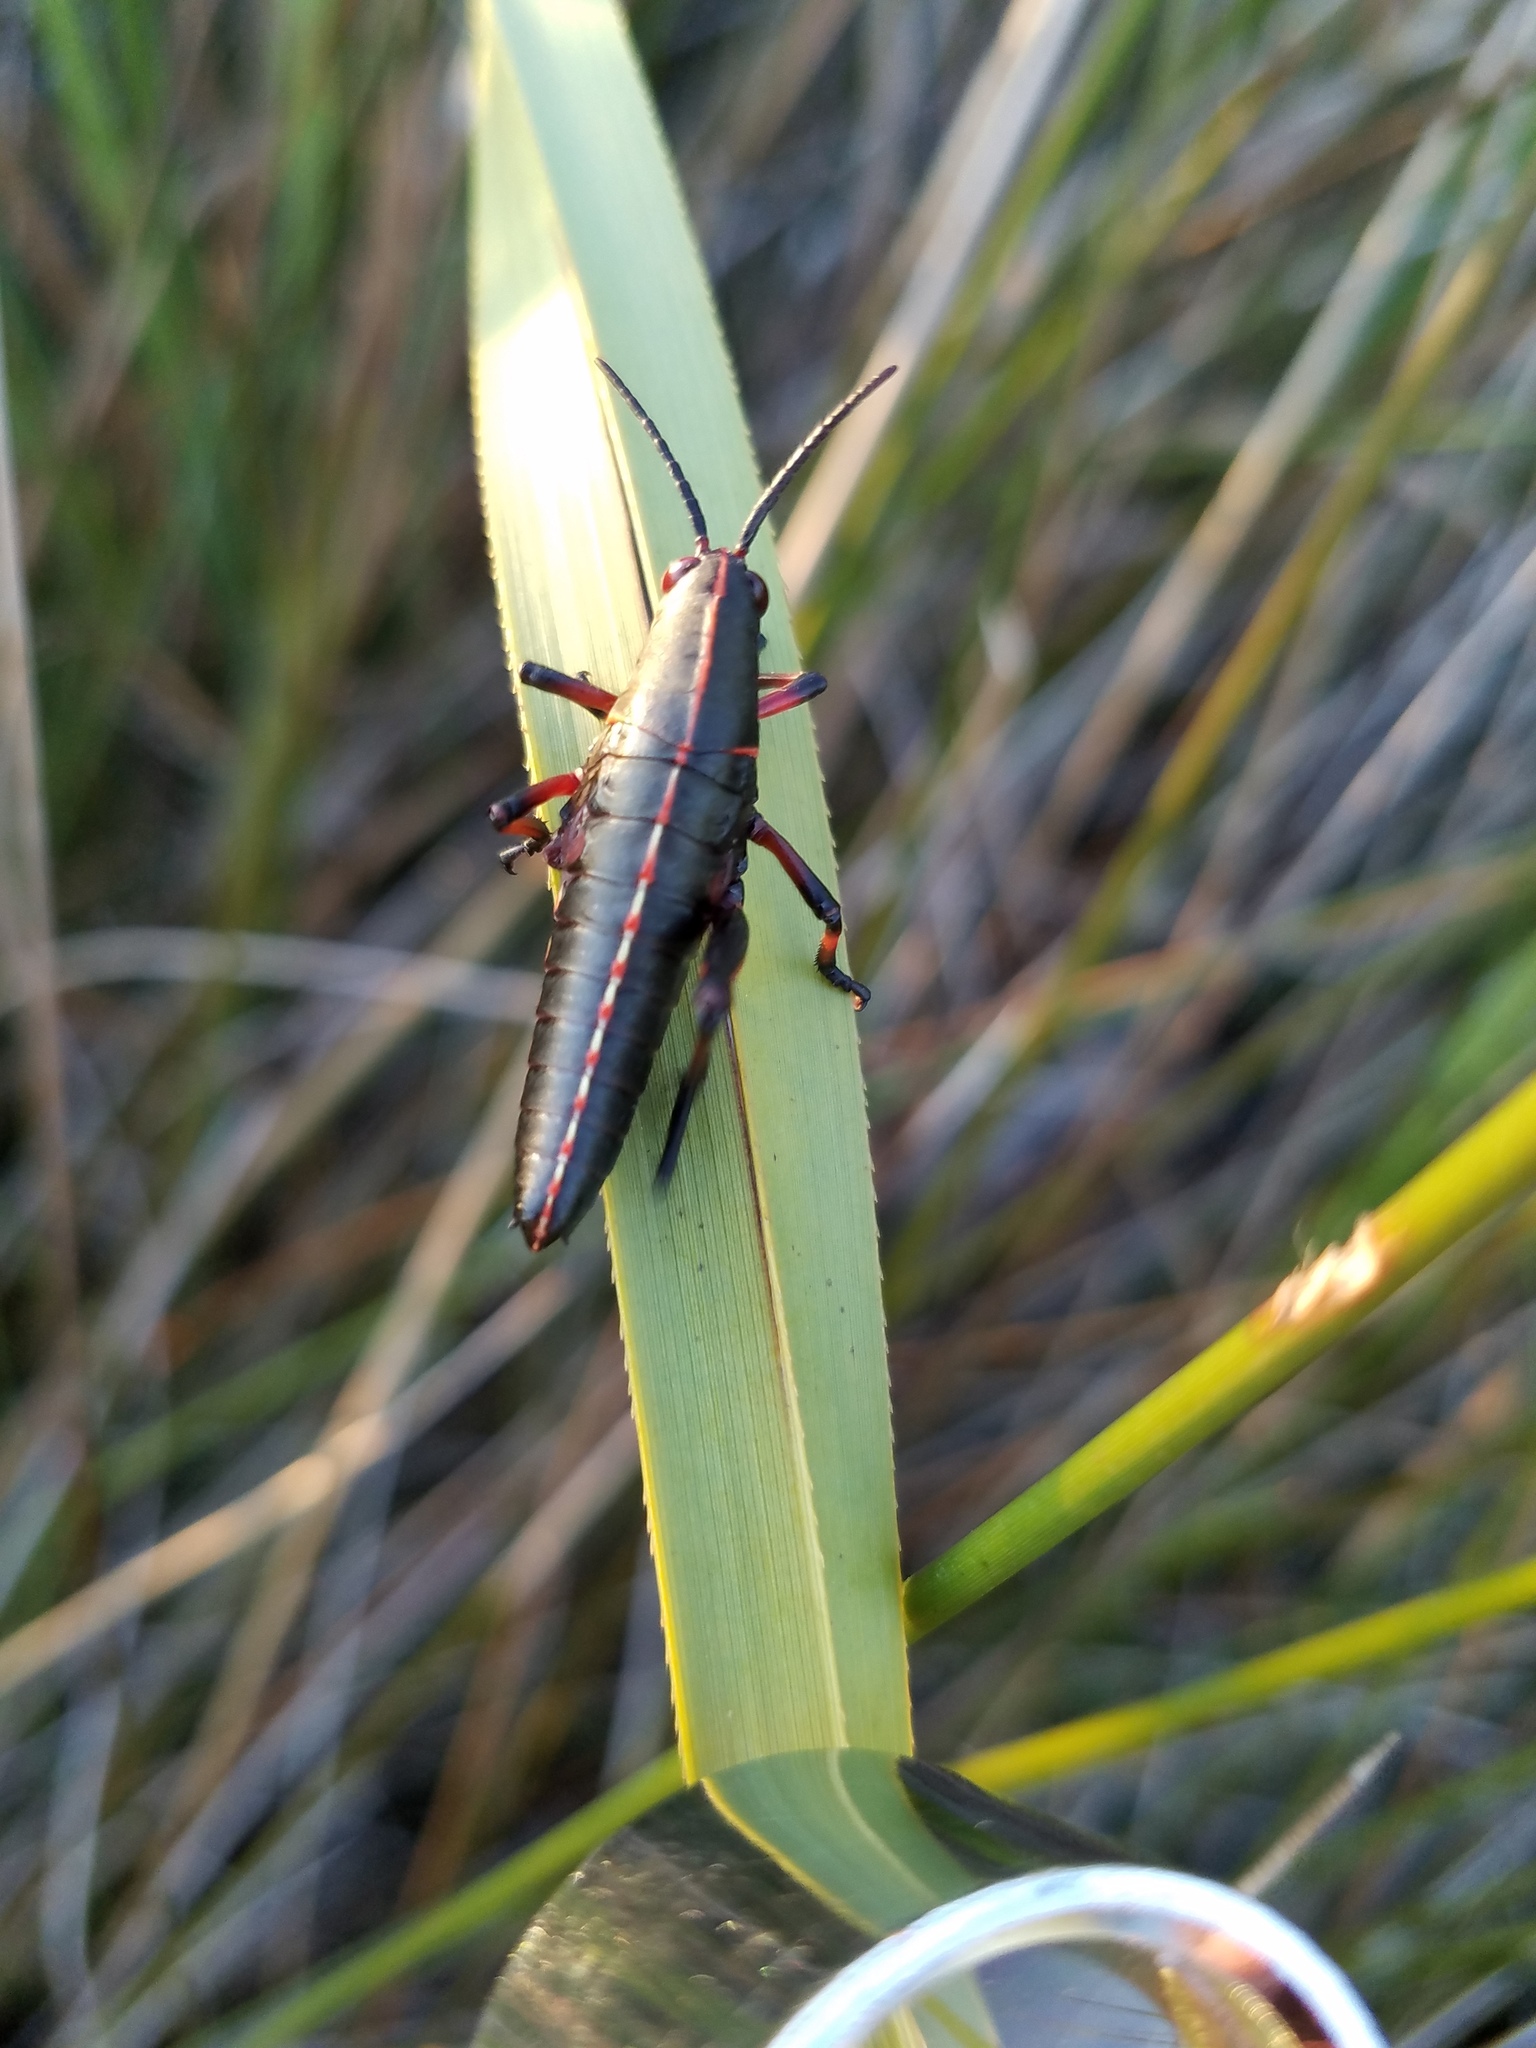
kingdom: Animalia
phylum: Arthropoda
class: Insecta
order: Orthoptera
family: Romaleidae
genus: Romalea
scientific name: Romalea microptera
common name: Eastern lubber grasshopper
